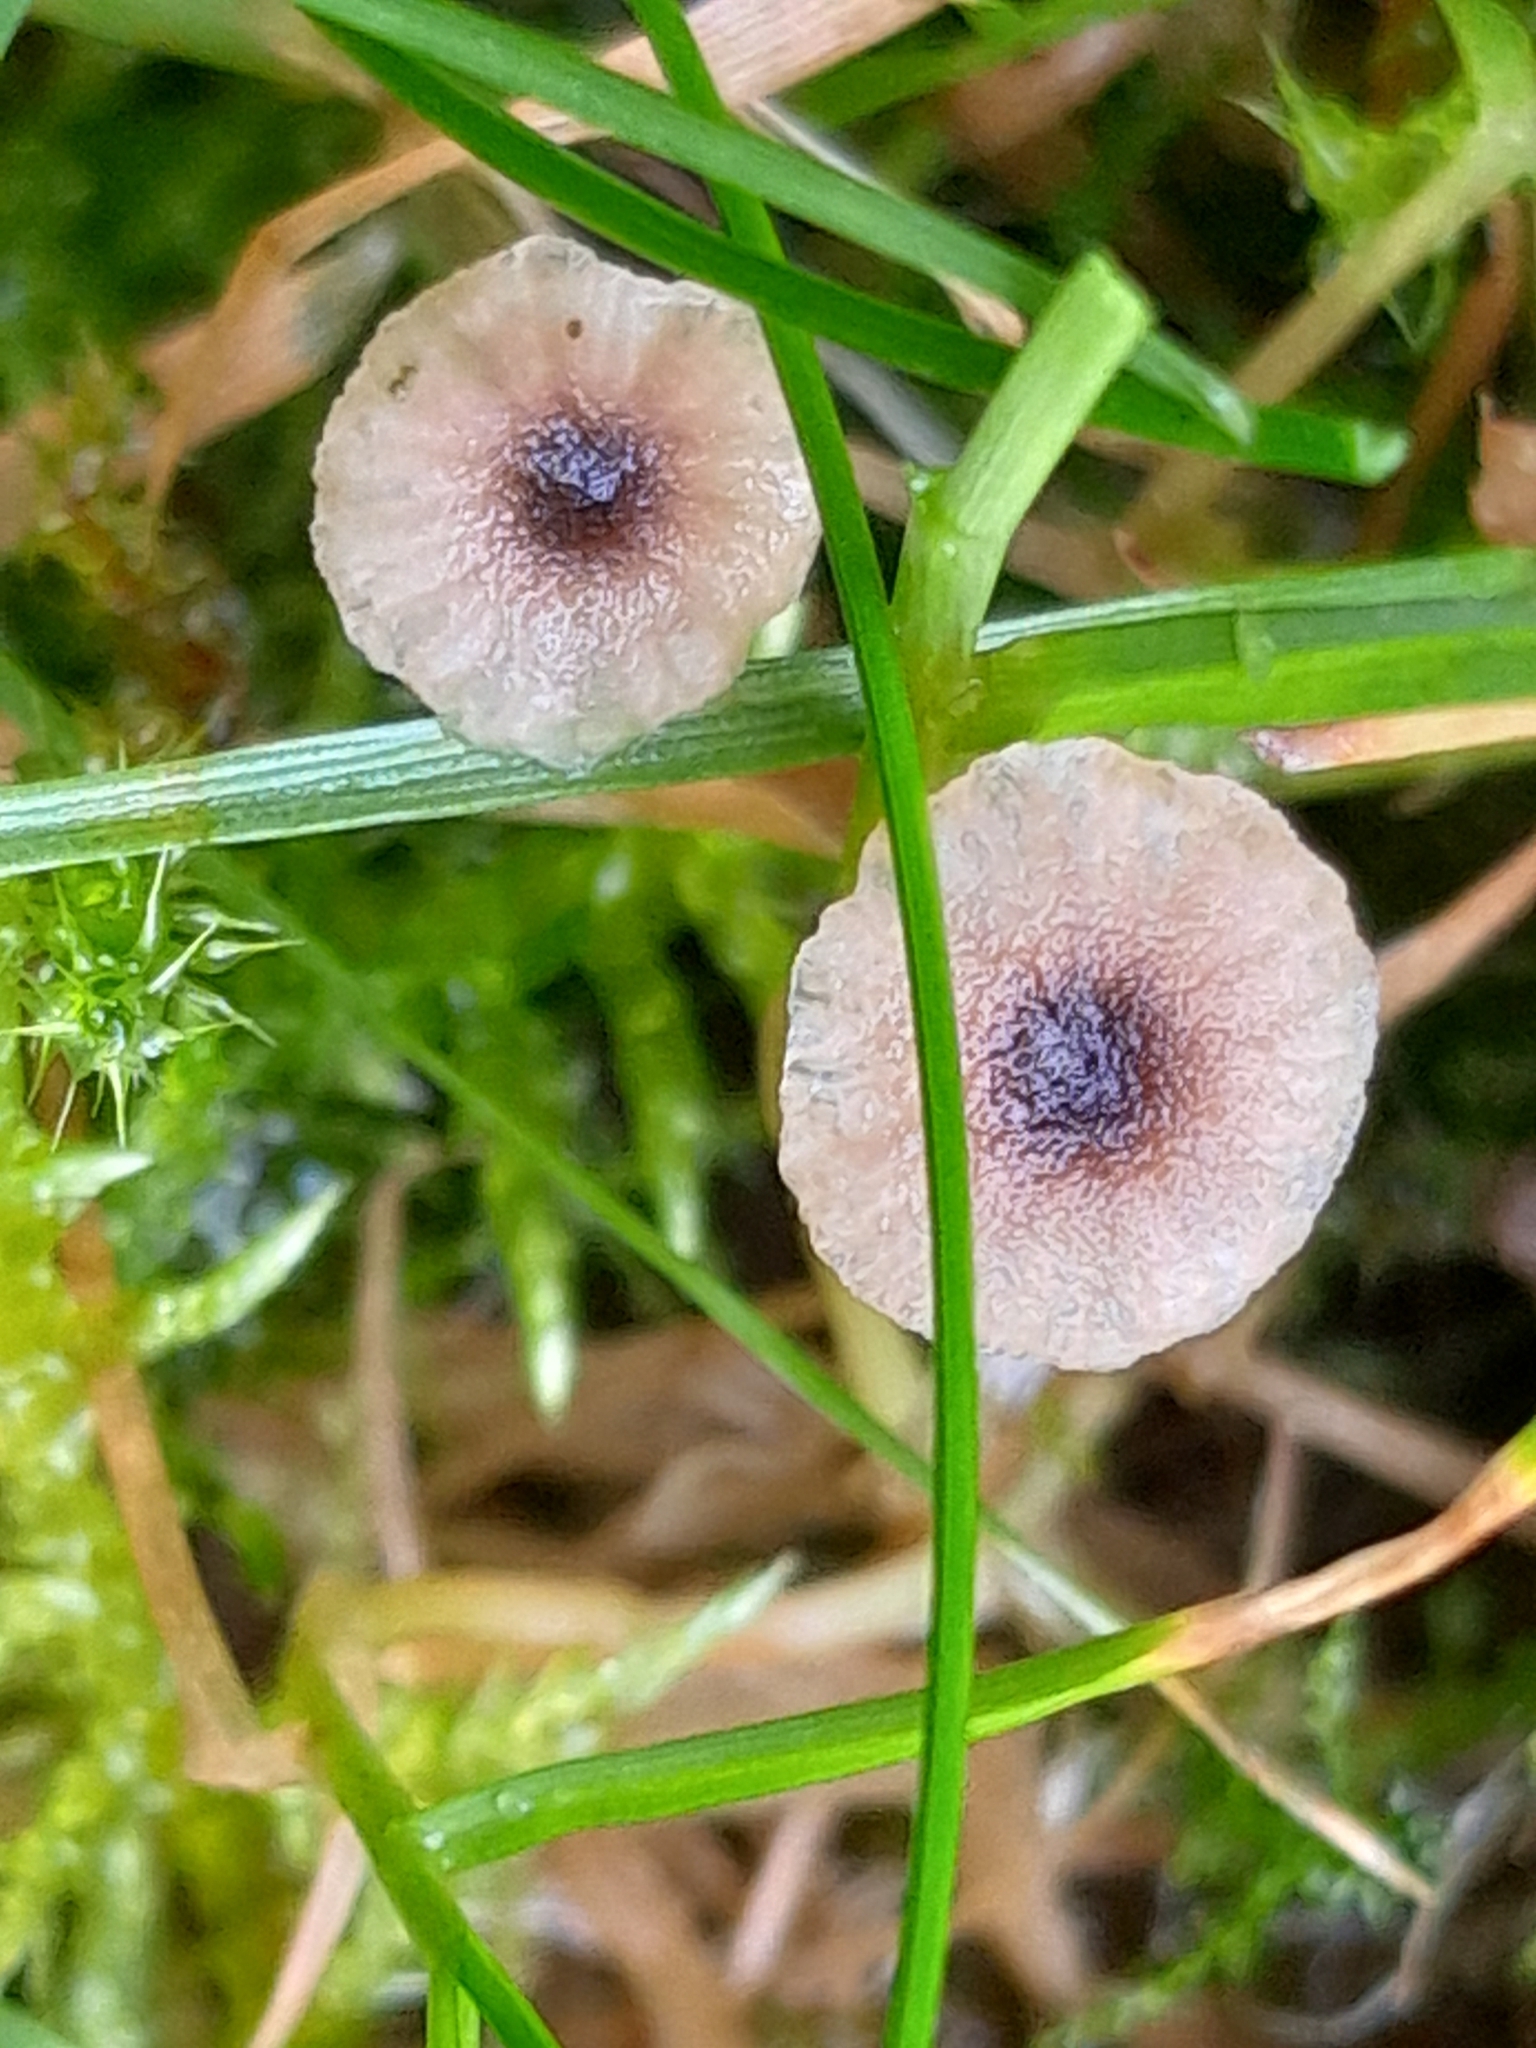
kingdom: Fungi
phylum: Basidiomycota
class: Agaricomycetes
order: Hymenochaetales
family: Rickenellaceae
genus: Rickenella
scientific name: Rickenella swartzii
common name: Collared mosscap
